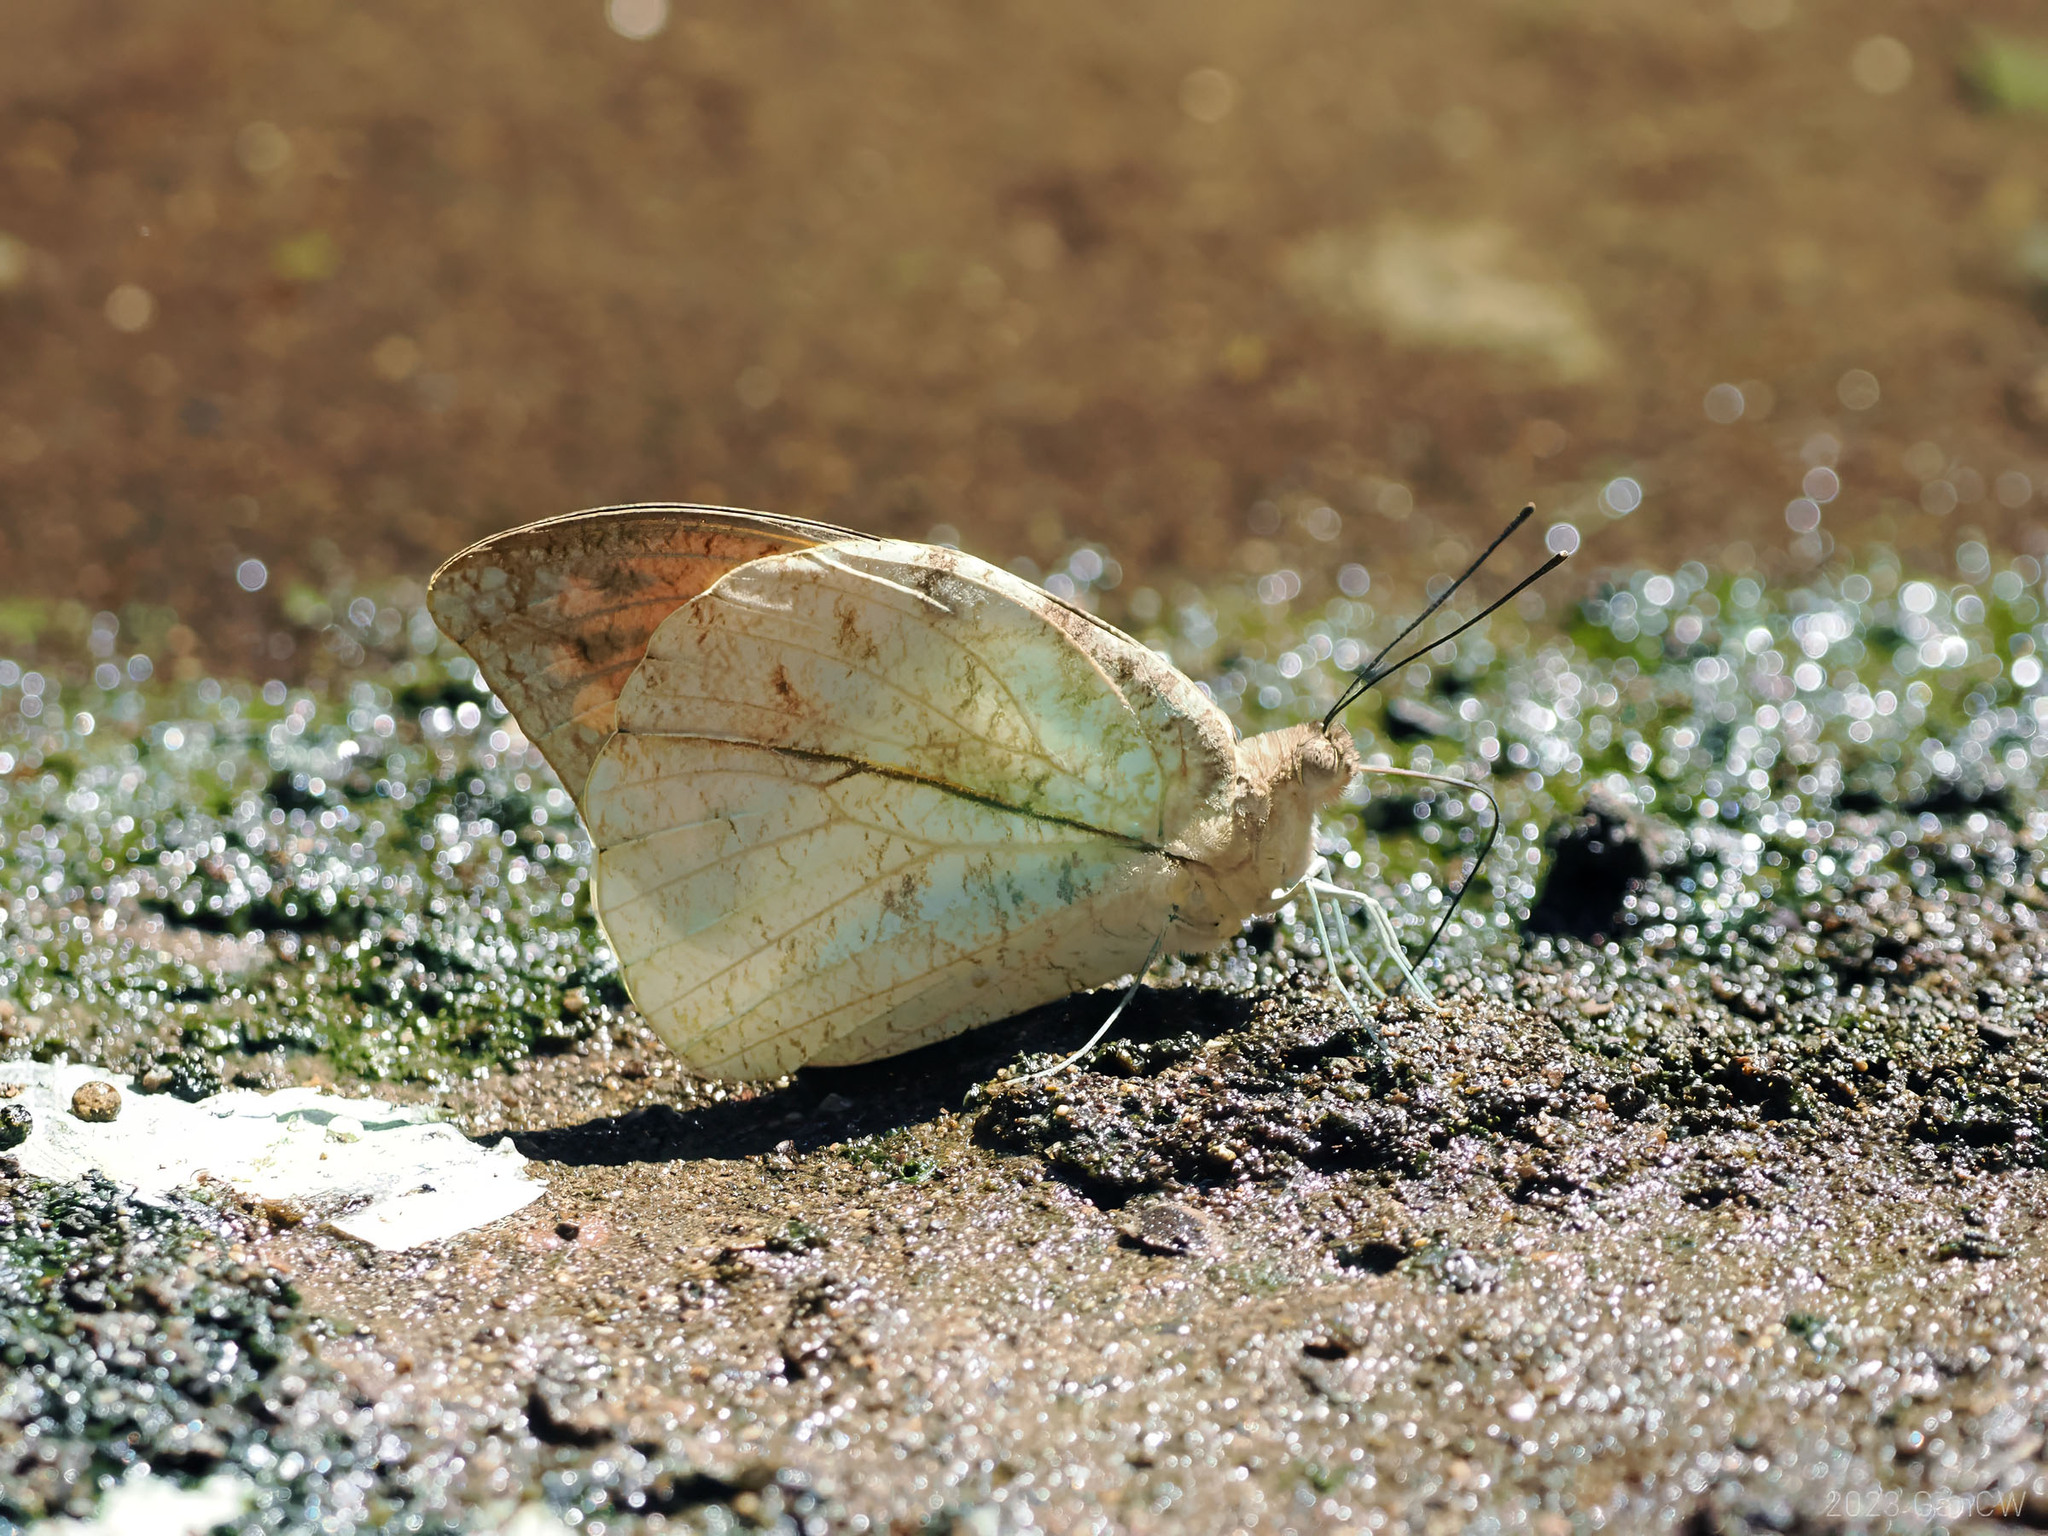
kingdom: Animalia
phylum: Arthropoda
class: Insecta
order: Lepidoptera
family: Pieridae
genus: Hebomoia
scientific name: Hebomoia glaucippe
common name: Great orange tip
